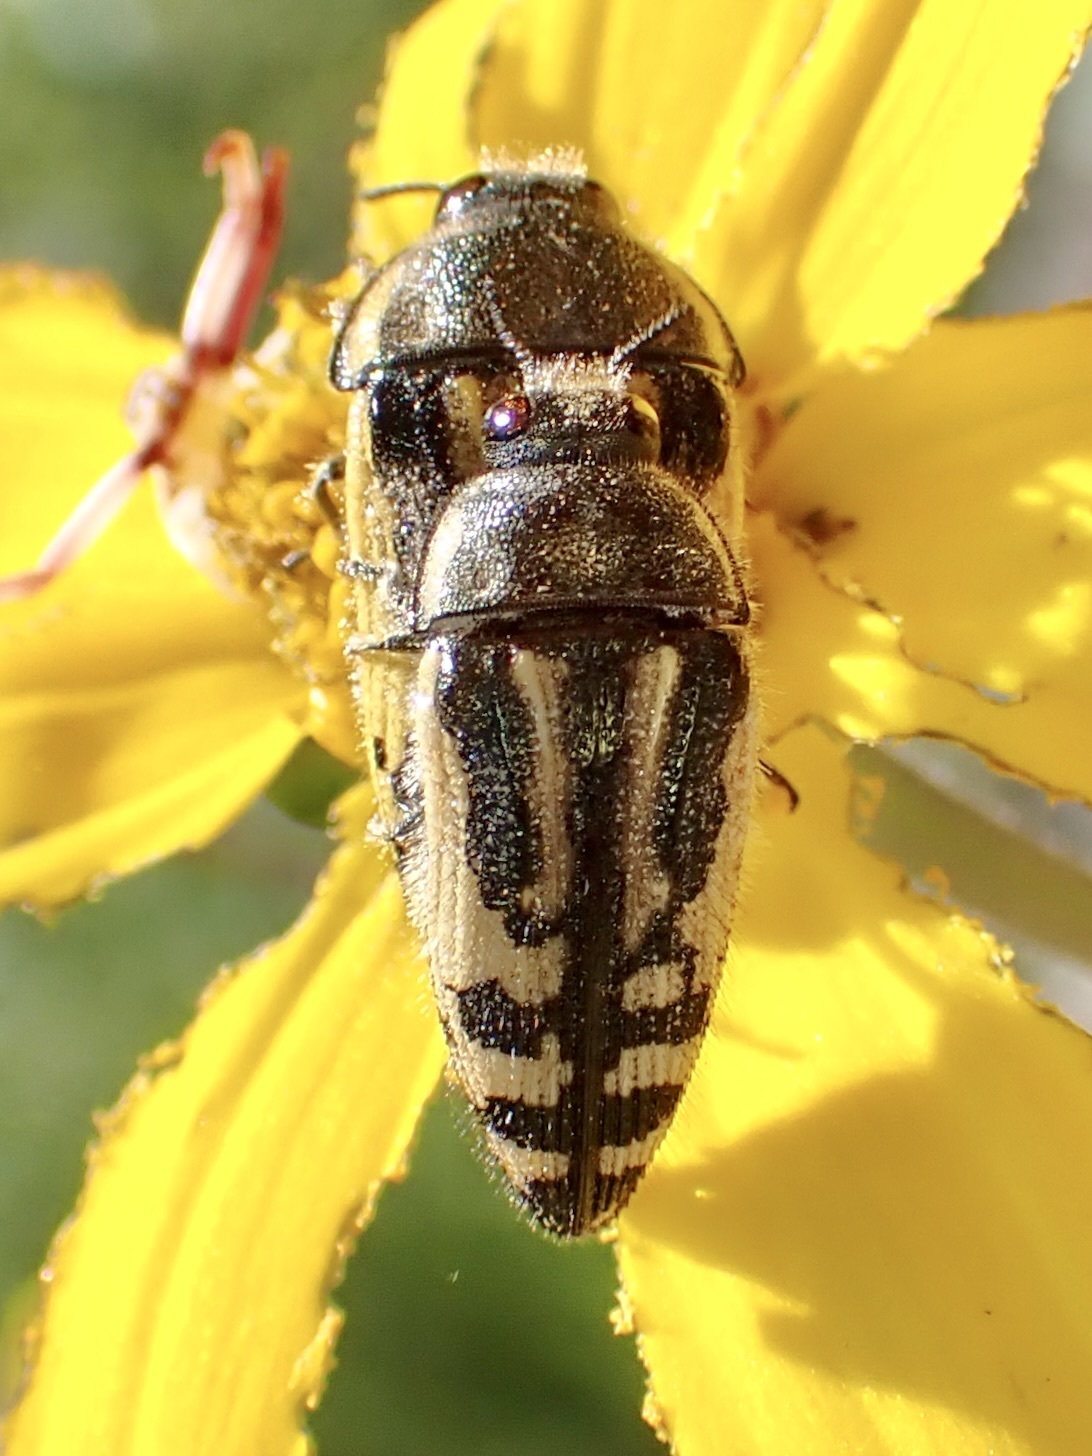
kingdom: Animalia
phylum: Arthropoda
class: Insecta
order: Coleoptera
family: Buprestidae
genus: Acmaeodera
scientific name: Acmaeodera amplicollis
